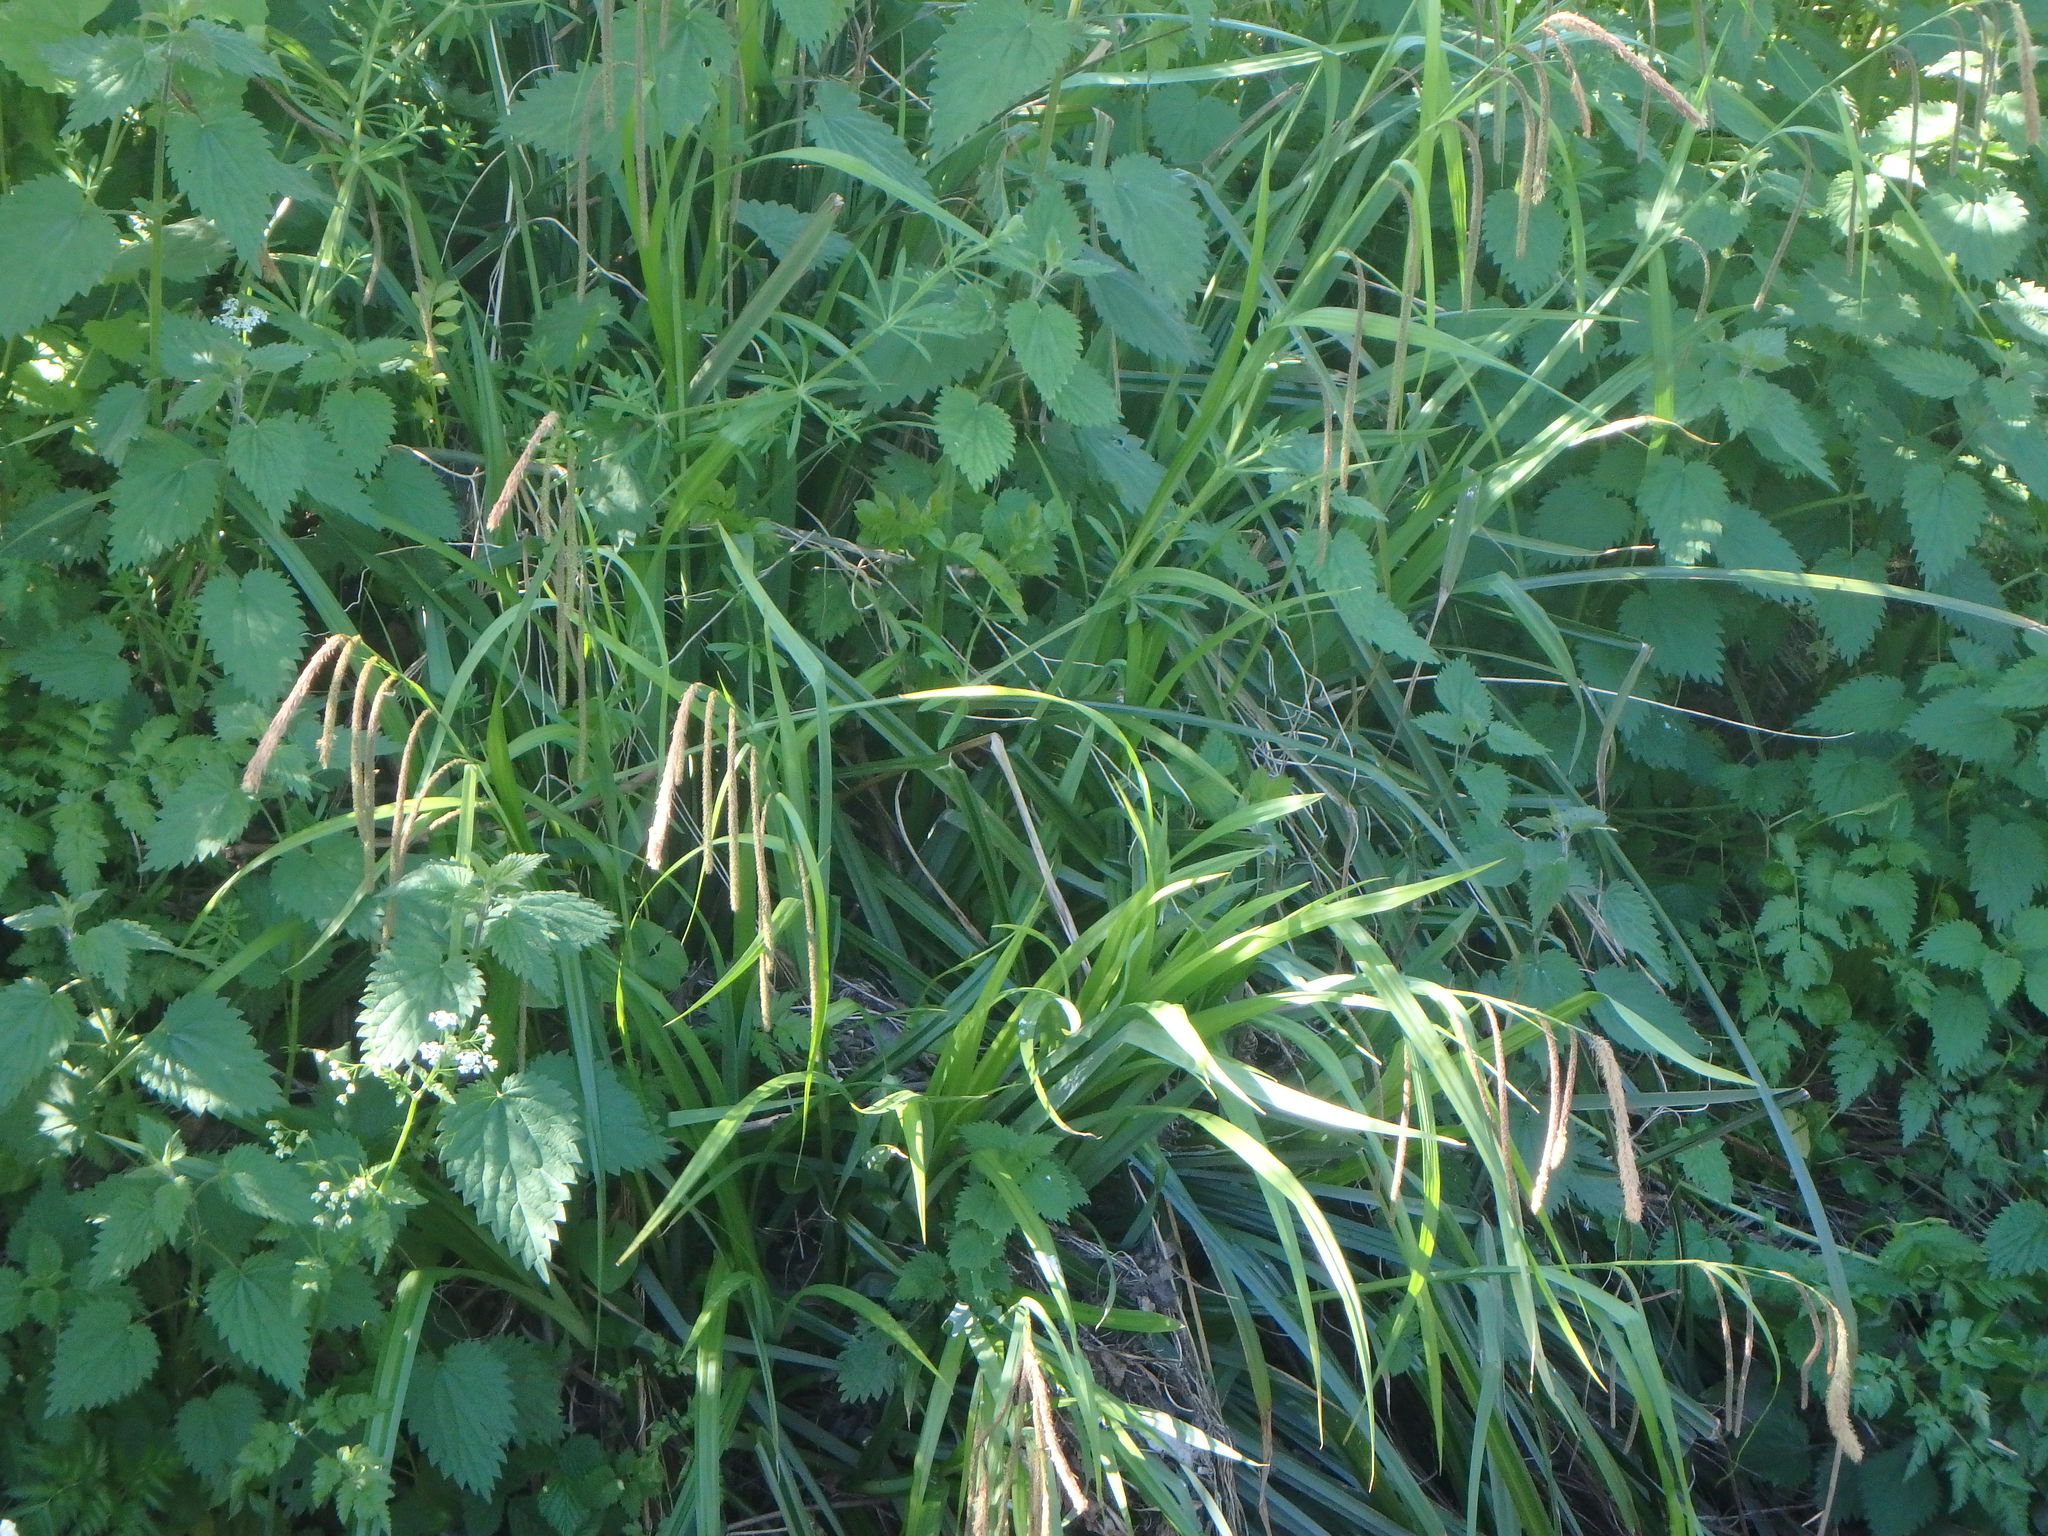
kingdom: Plantae
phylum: Tracheophyta
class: Liliopsida
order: Poales
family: Cyperaceae
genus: Carex
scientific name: Carex pendula
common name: Pendulous sedge
